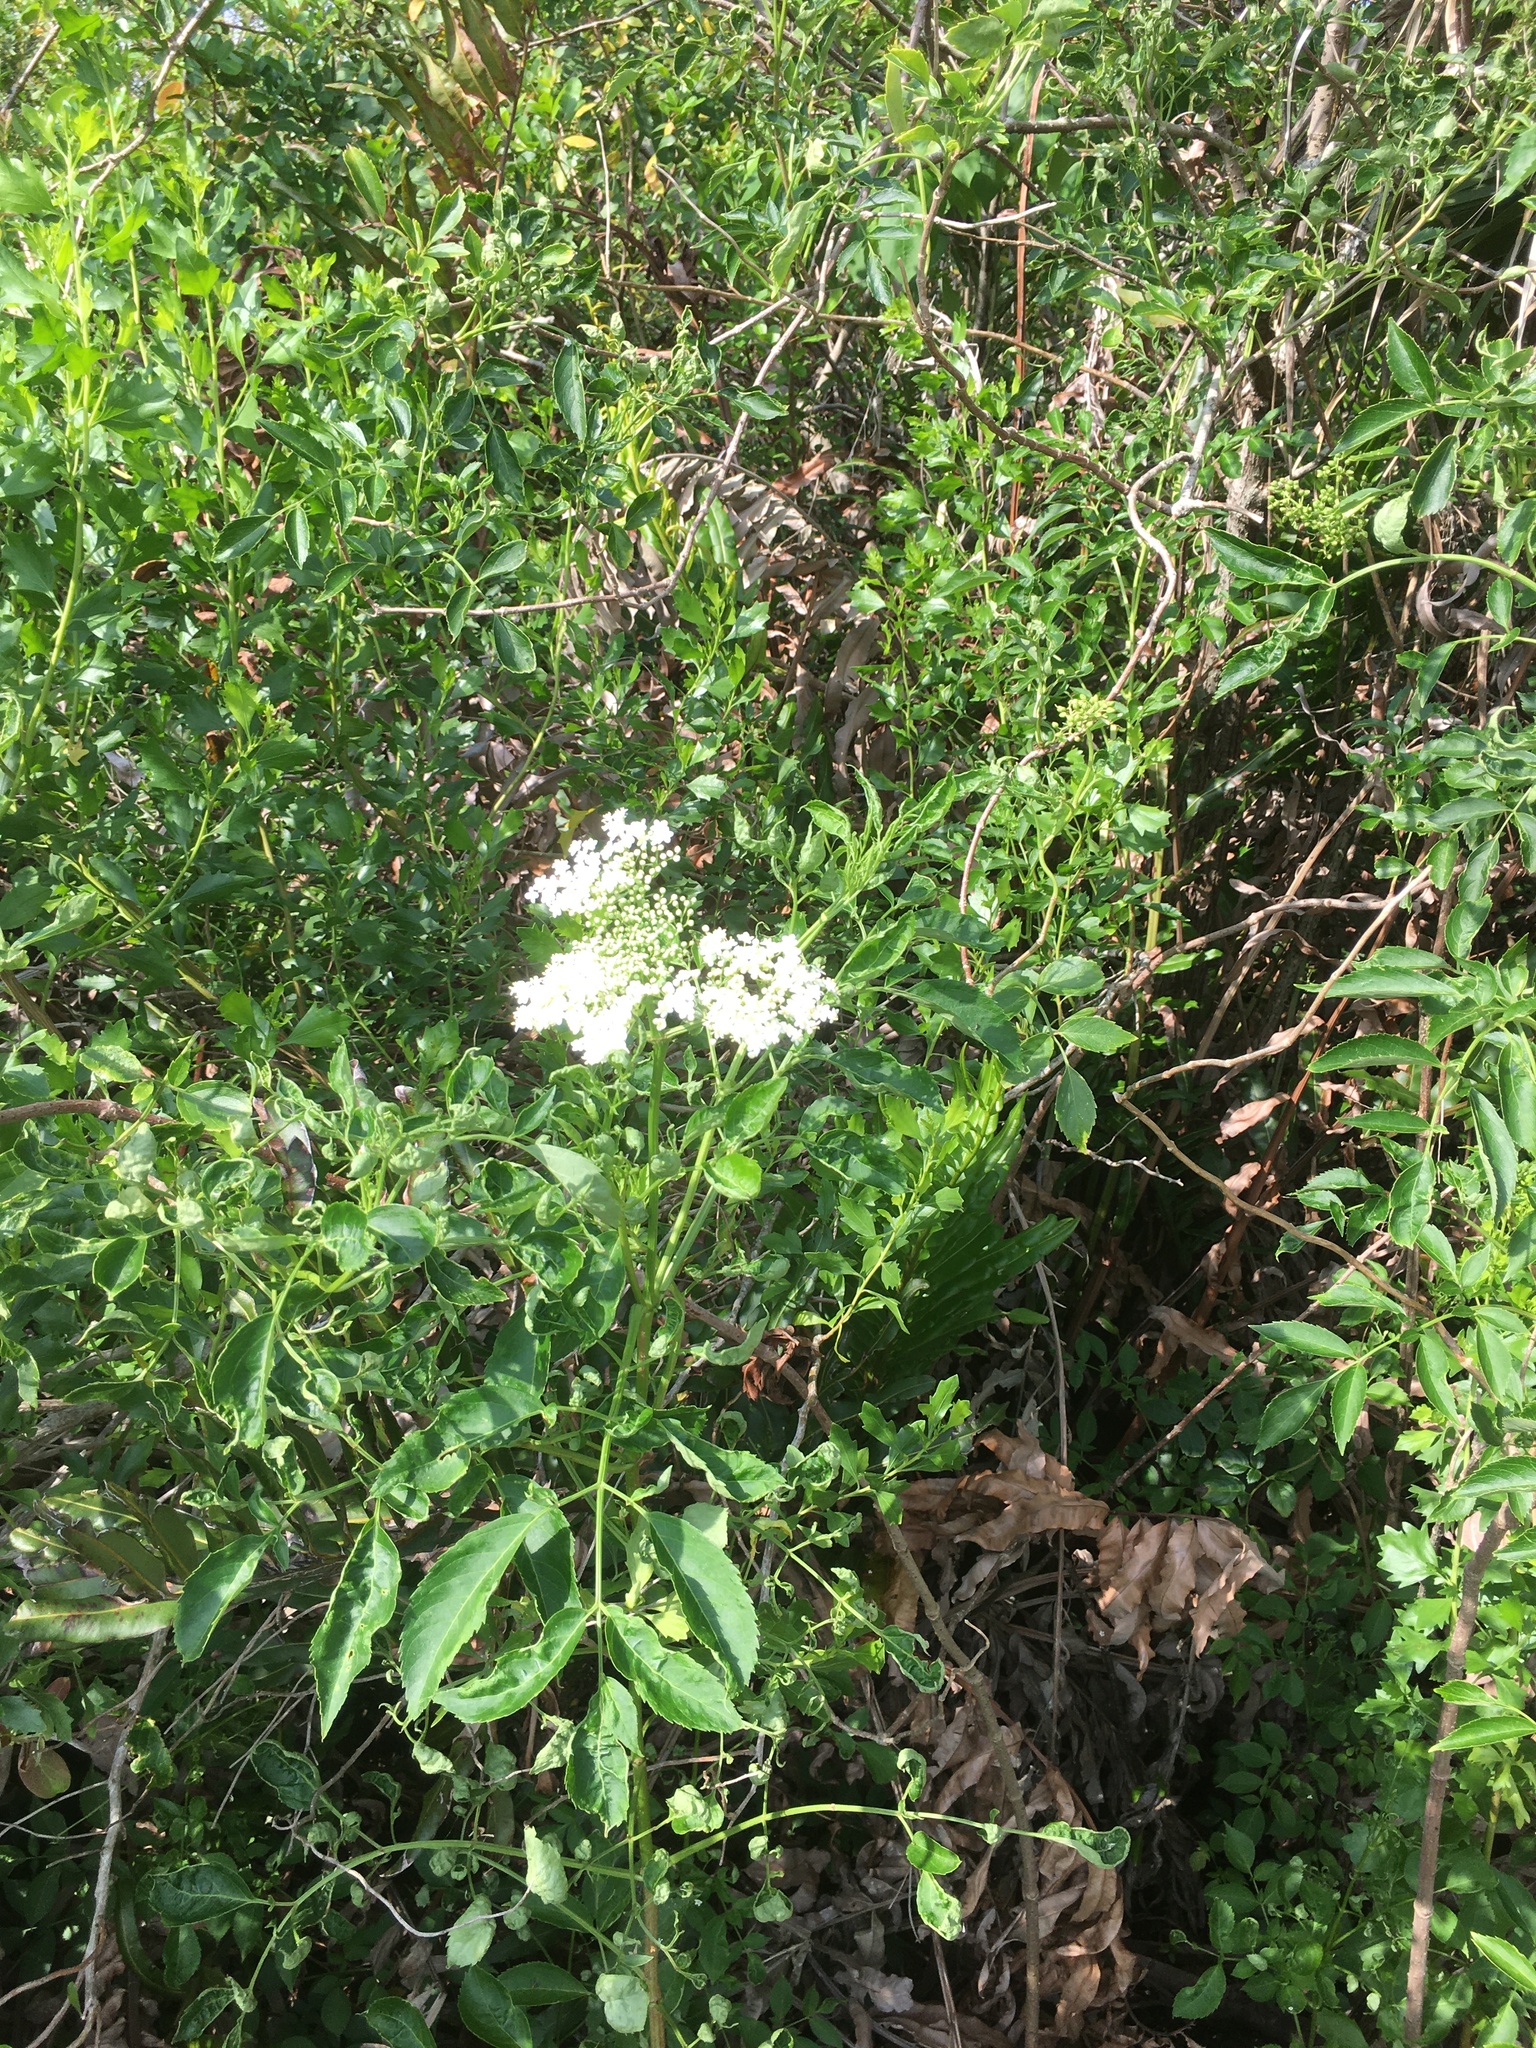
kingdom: Plantae
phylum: Tracheophyta
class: Magnoliopsida
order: Apiales
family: Apiaceae
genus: Cicuta
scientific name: Cicuta maculata
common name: Spotted cowbane
